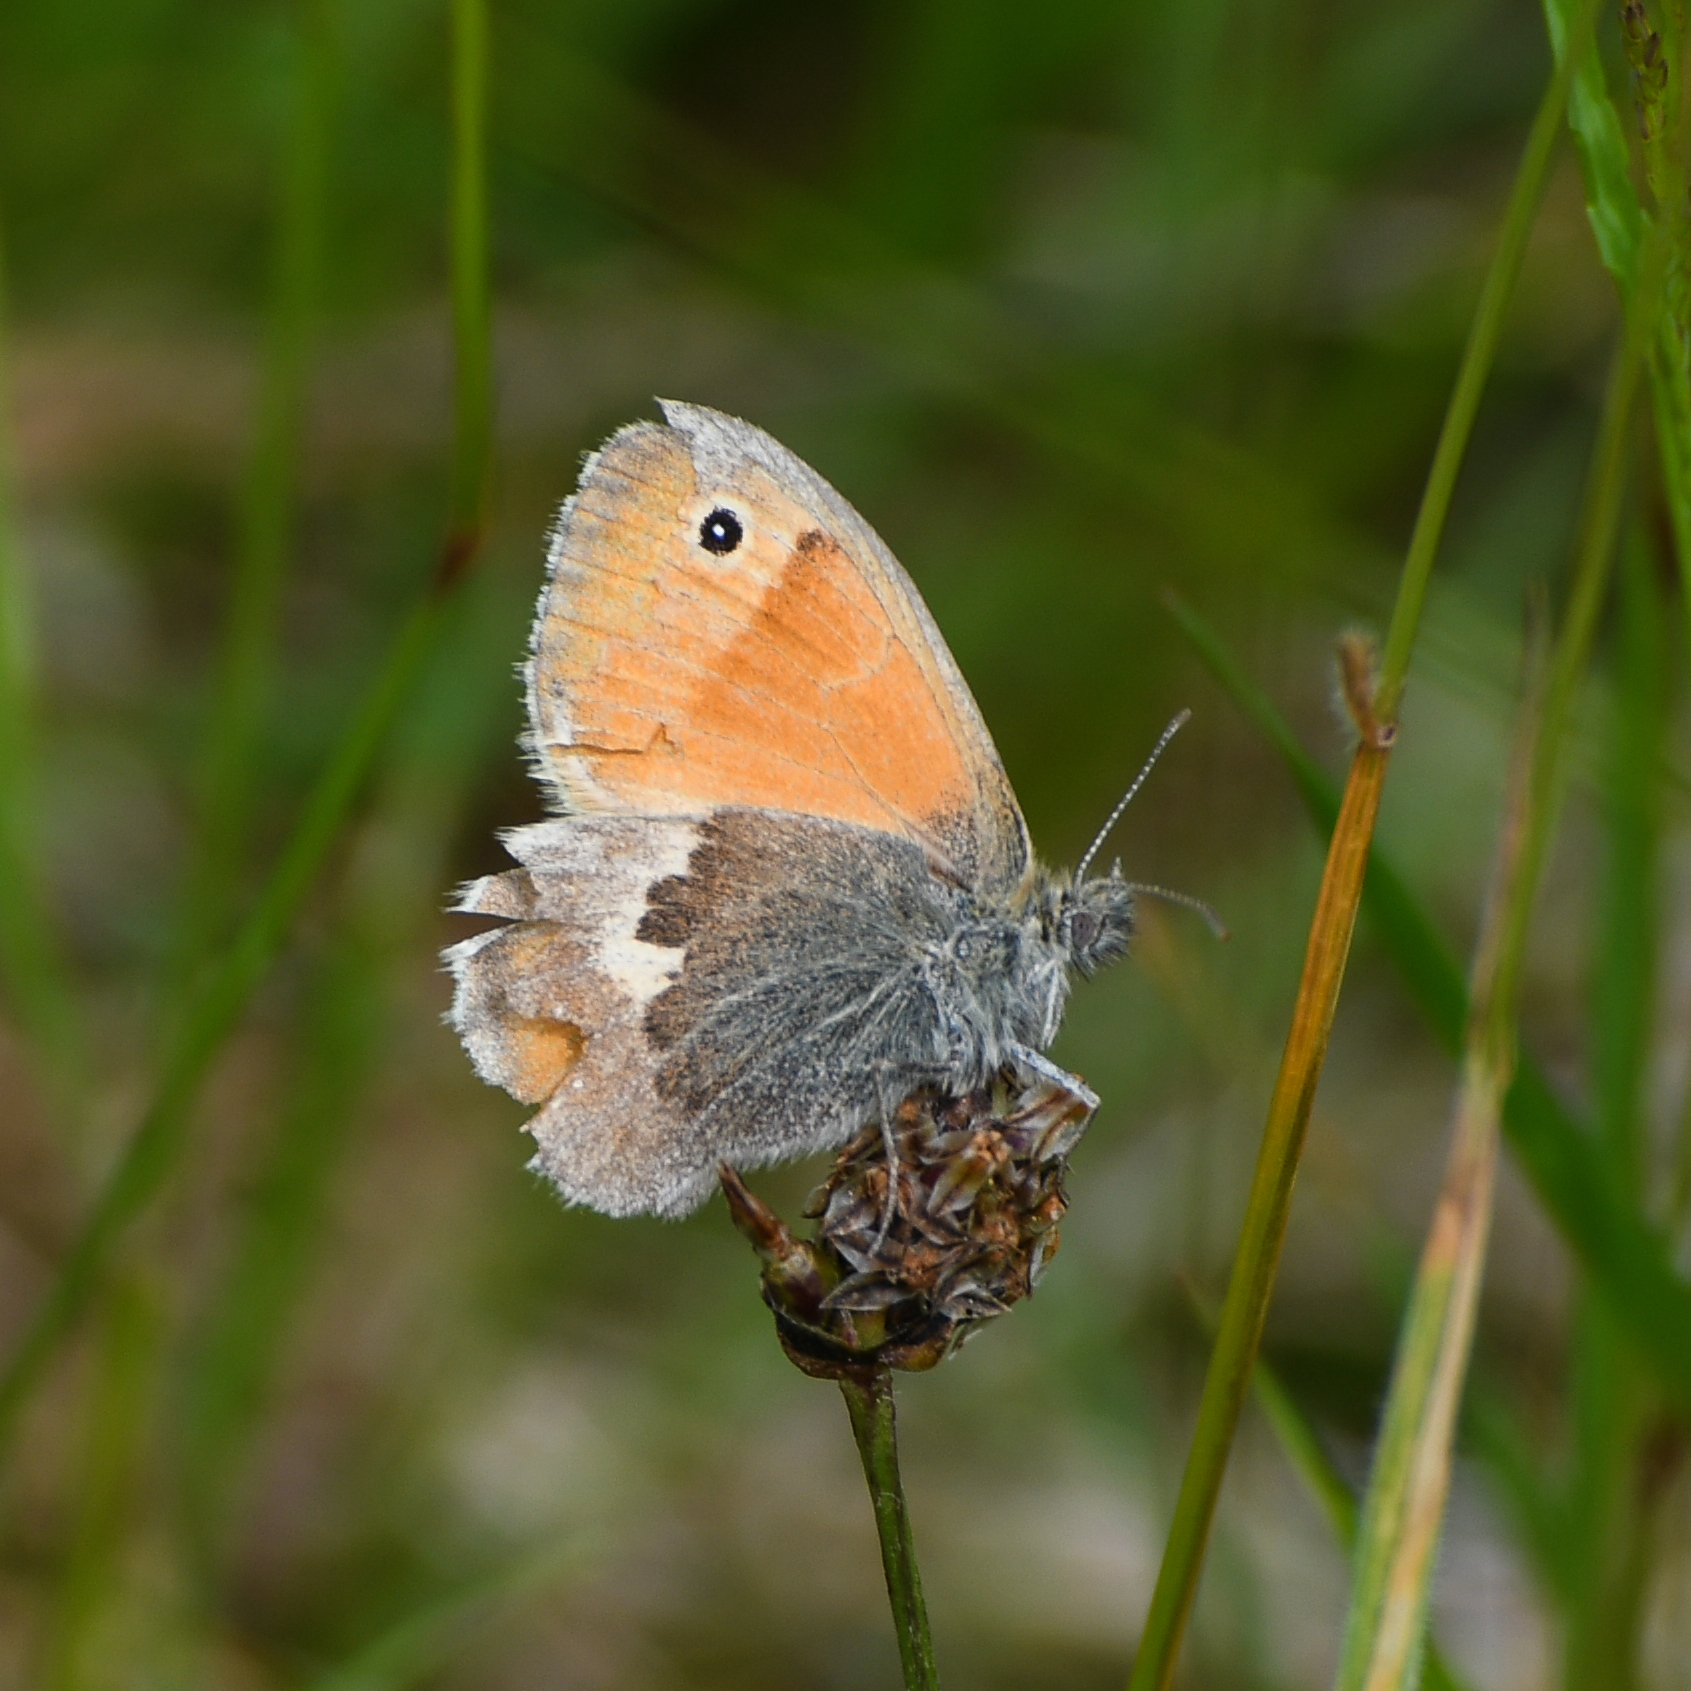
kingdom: Animalia
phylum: Arthropoda
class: Insecta
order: Lepidoptera
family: Nymphalidae
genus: Coenonympha
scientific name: Coenonympha pamphilus
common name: Small heath
